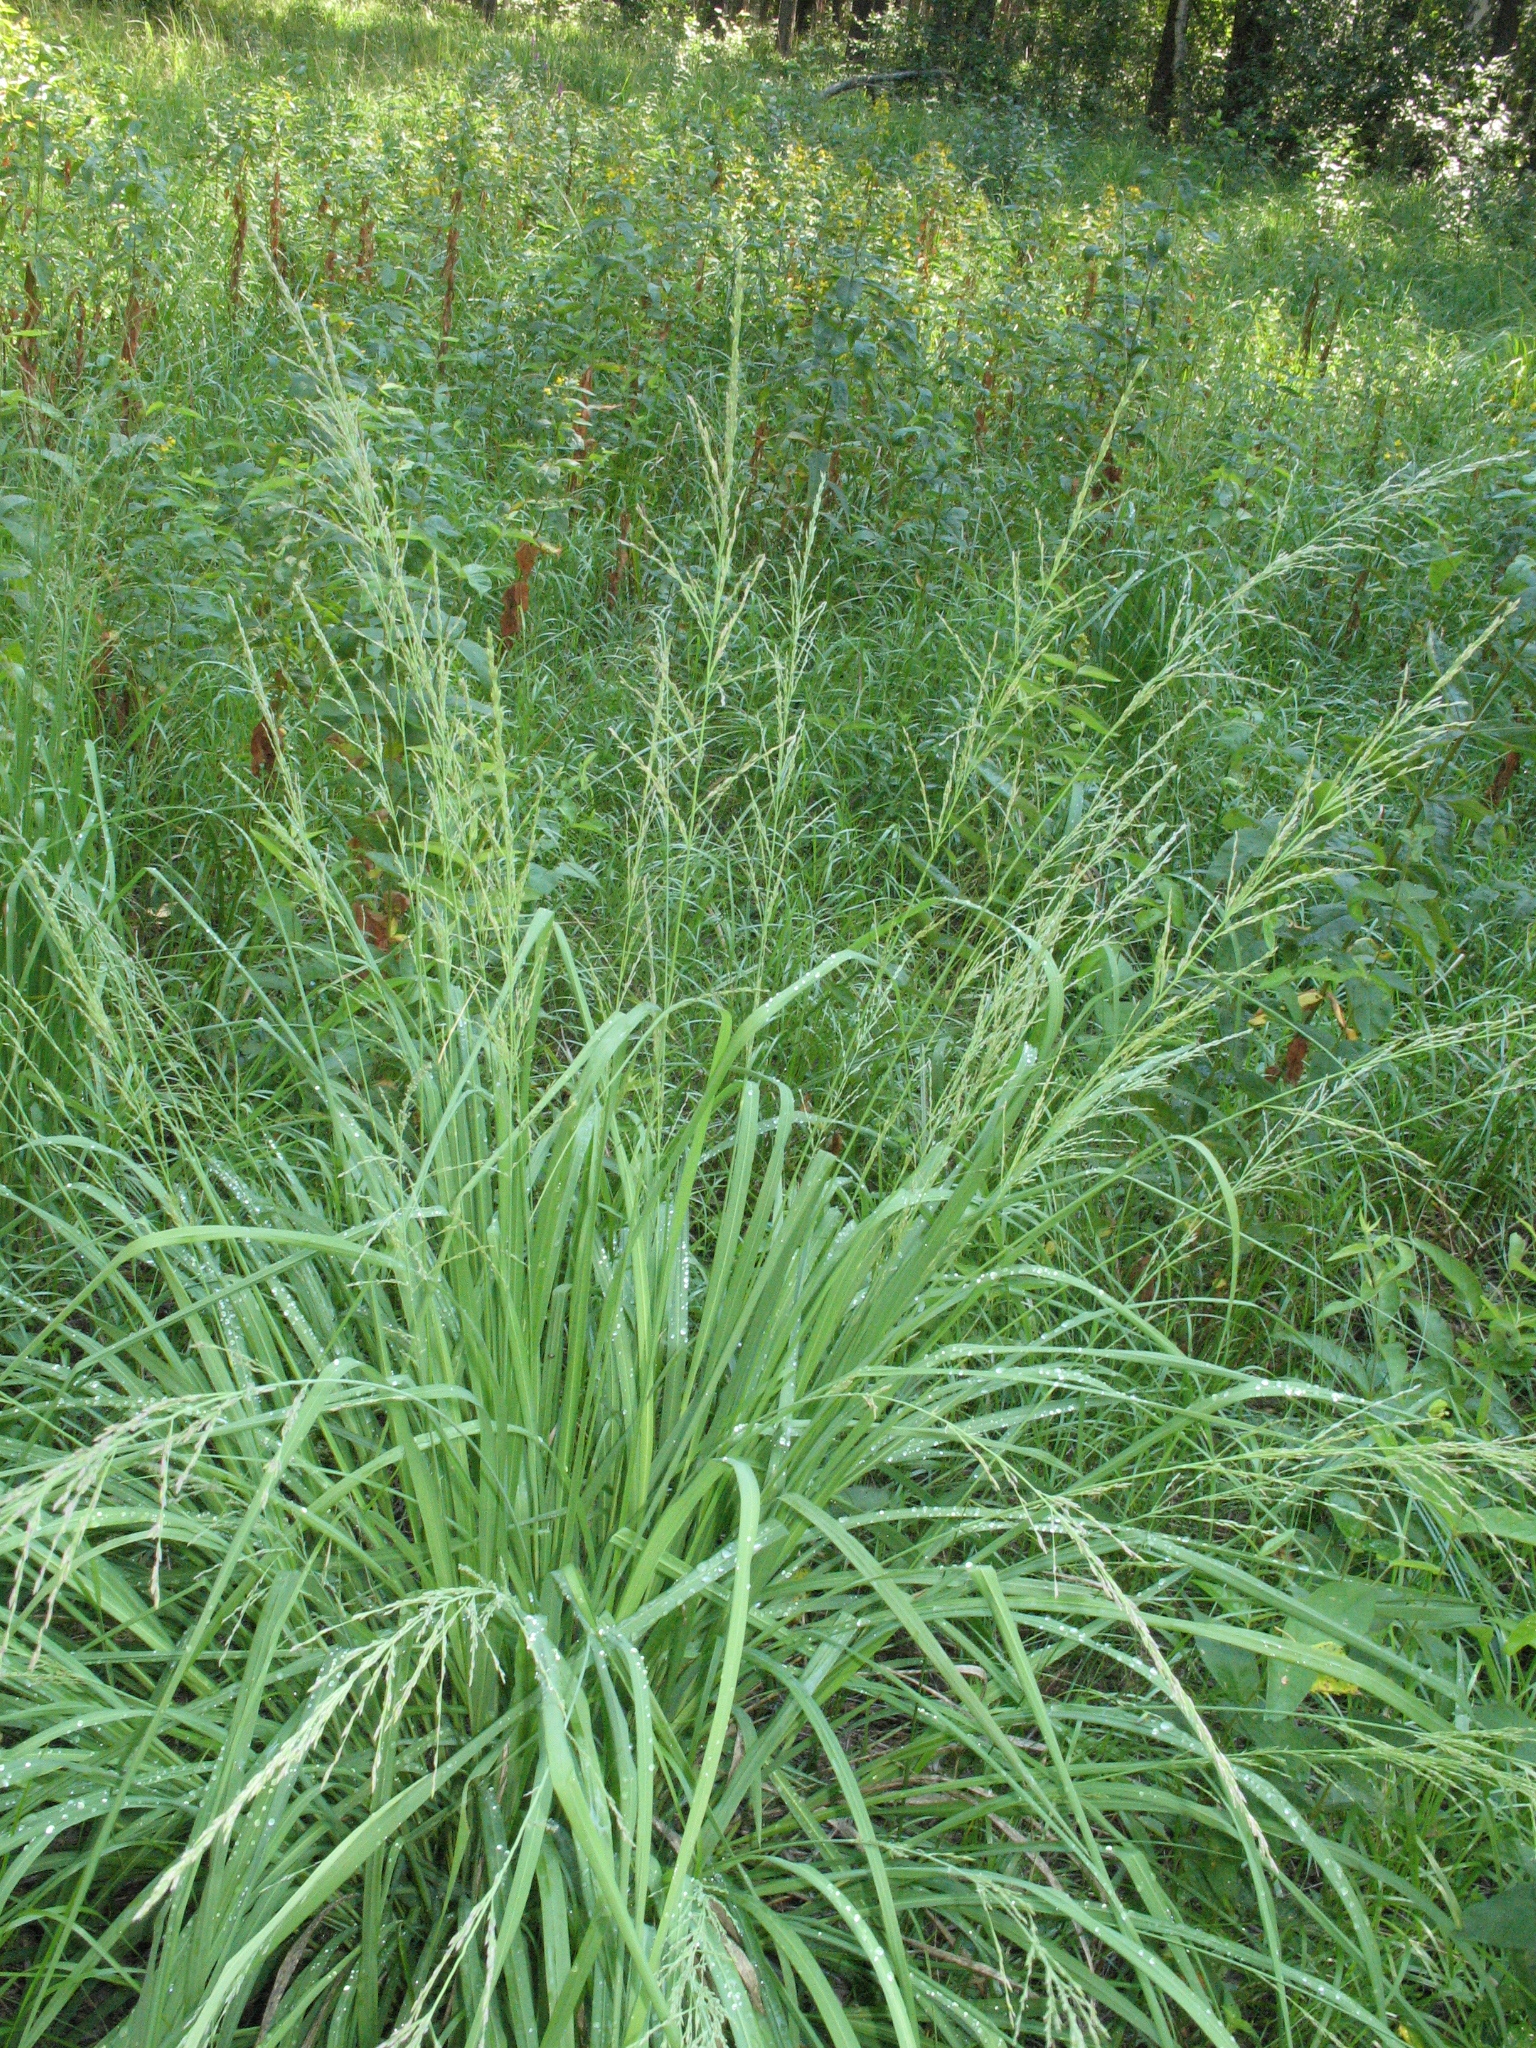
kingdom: Plantae
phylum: Tracheophyta
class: Liliopsida
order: Poales
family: Poaceae
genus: Molinia
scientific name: Molinia caerulea
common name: Purple moor-grass
